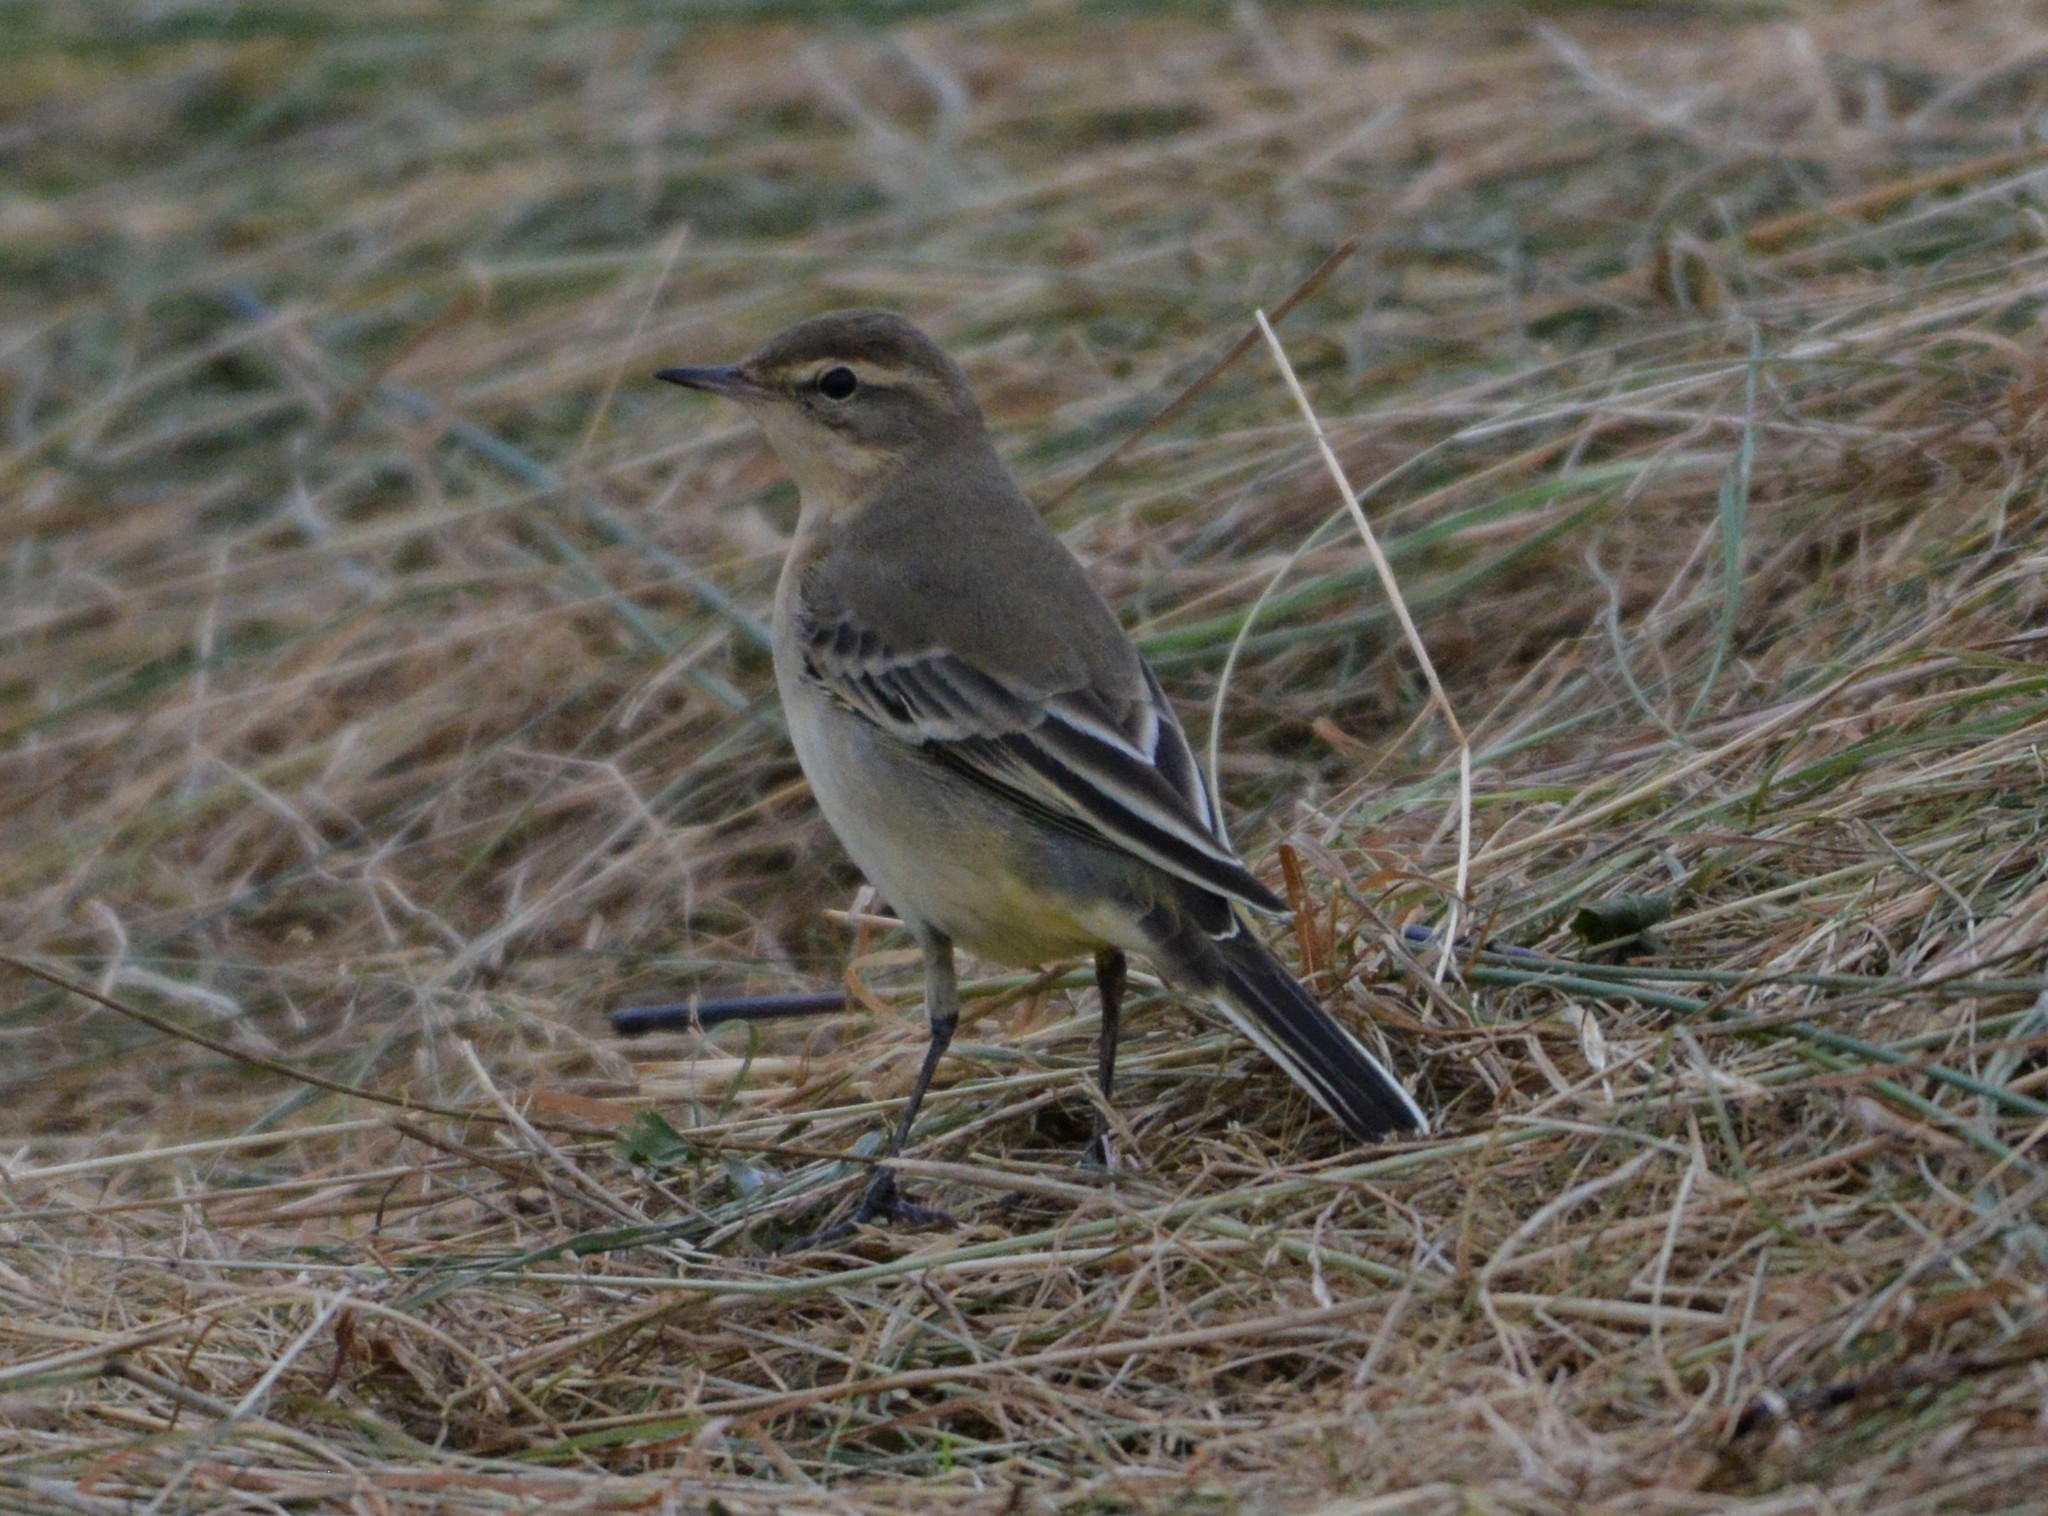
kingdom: Animalia
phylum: Chordata
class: Aves
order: Passeriformes
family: Motacillidae
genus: Motacilla
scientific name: Motacilla flava
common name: Western yellow wagtail
